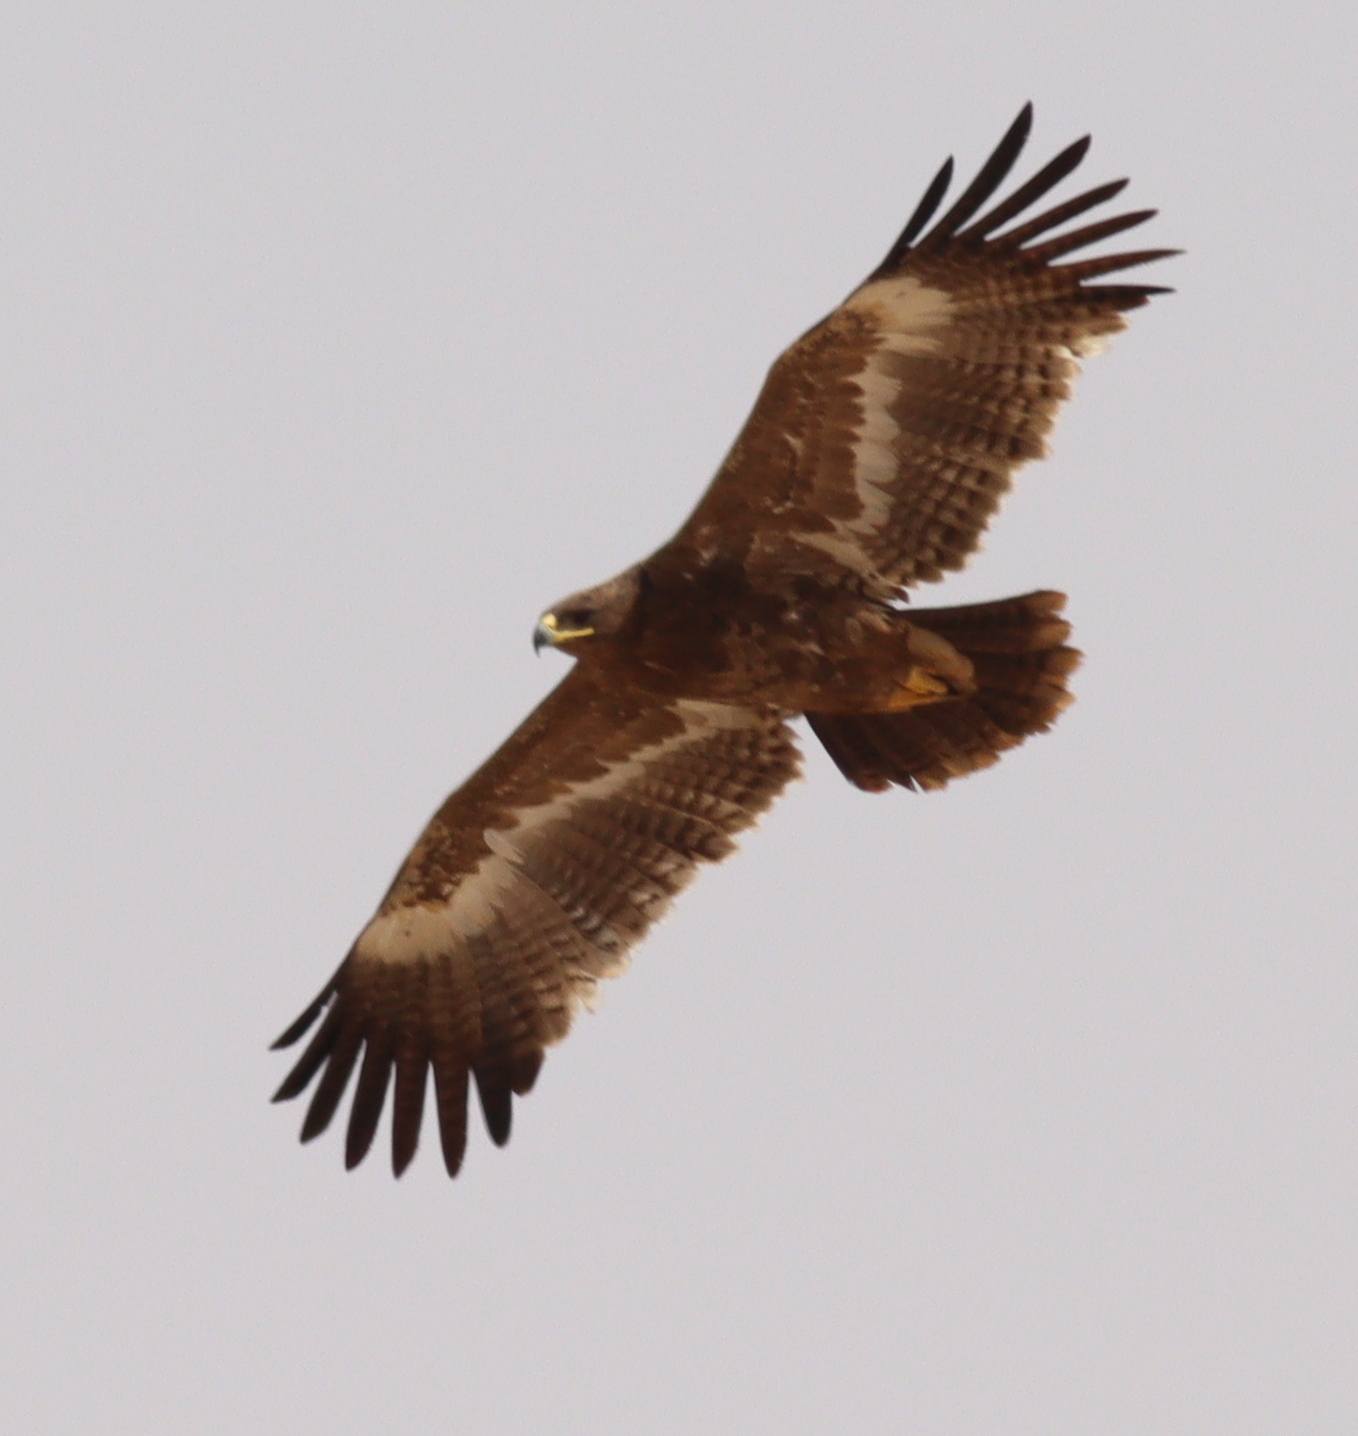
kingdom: Animalia
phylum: Chordata
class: Aves
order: Accipitriformes
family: Accipitridae
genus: Aquila
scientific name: Aquila nipalensis
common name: Steppe eagle
